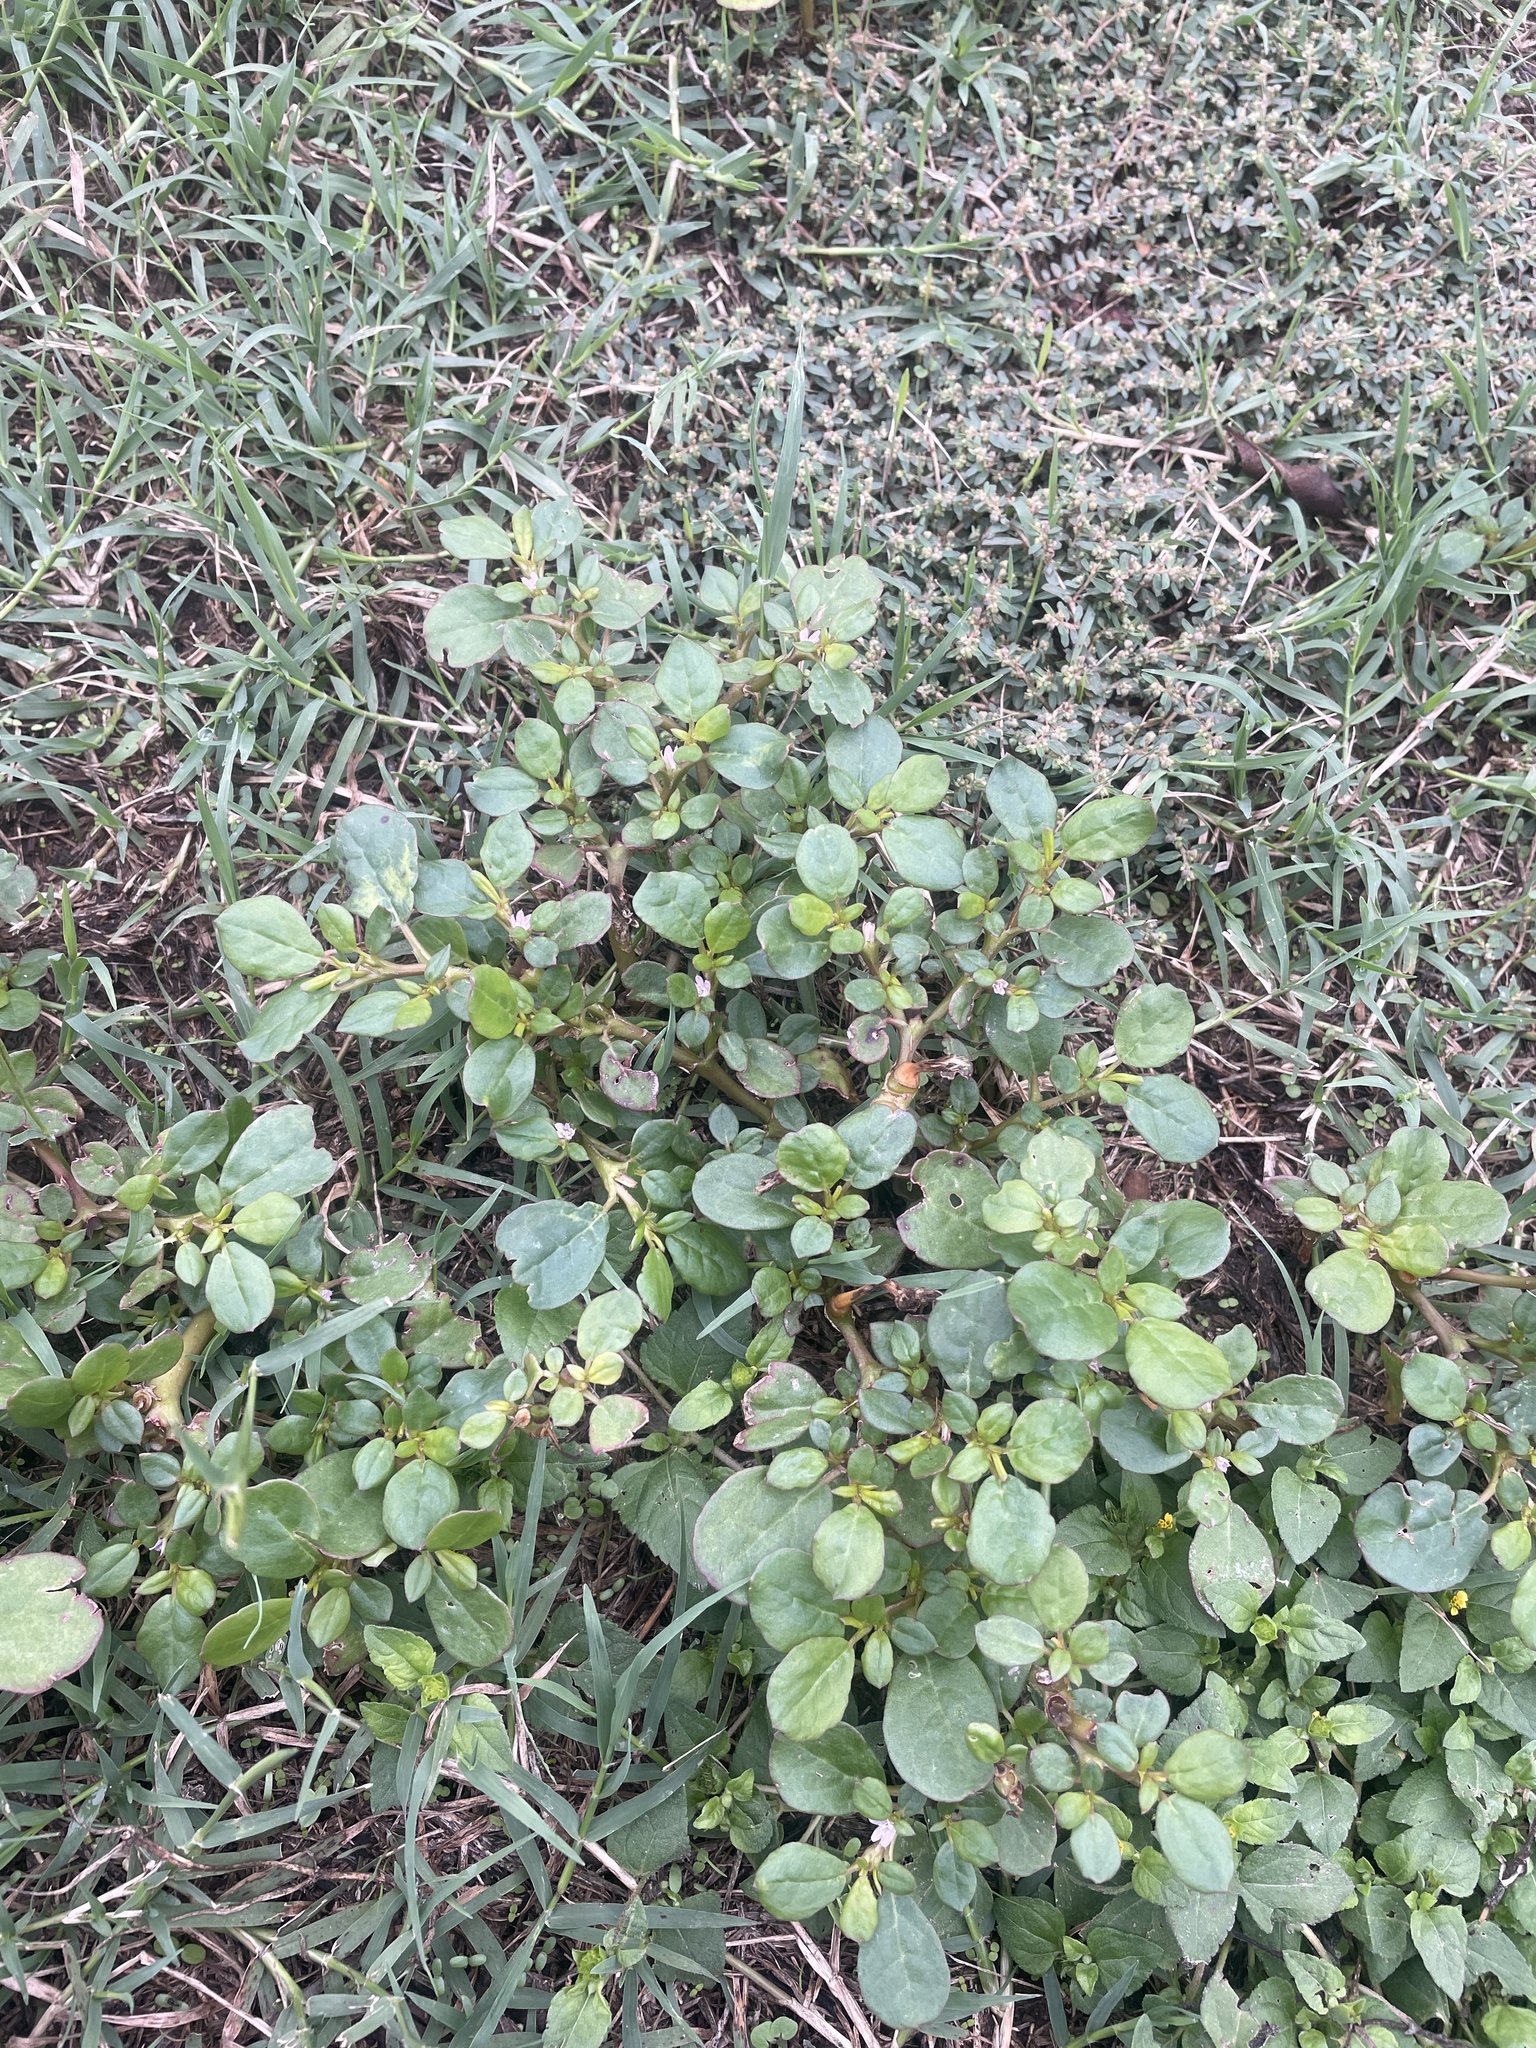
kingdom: Plantae
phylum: Tracheophyta
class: Magnoliopsida
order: Caryophyllales
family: Aizoaceae
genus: Trianthema
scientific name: Trianthema portulacastrum
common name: Desert horsepurslane
